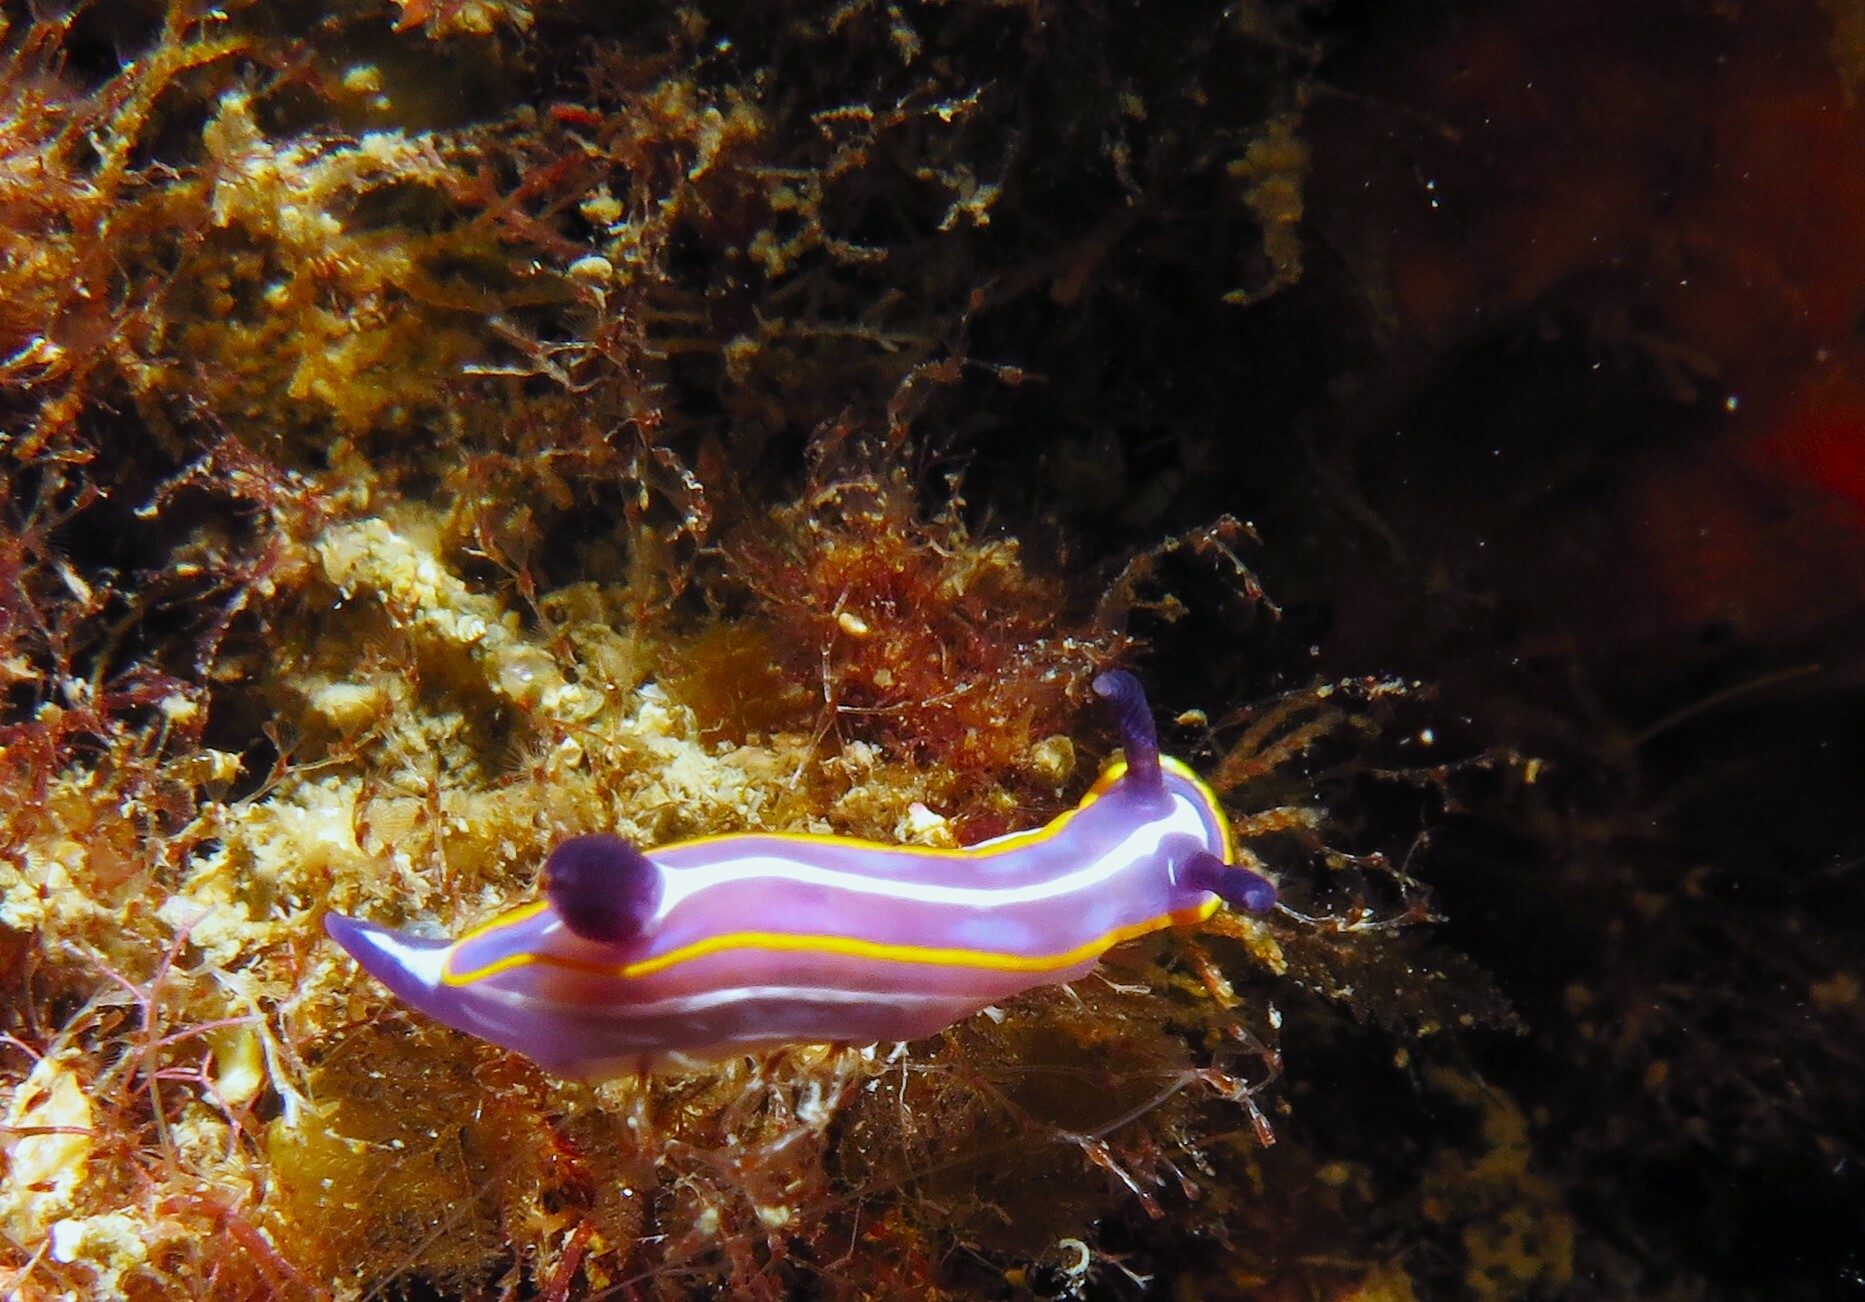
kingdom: Animalia
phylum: Mollusca
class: Gastropoda
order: Nudibranchia
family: Chromodorididae
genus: Felimare
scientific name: Felimare fontandraui
